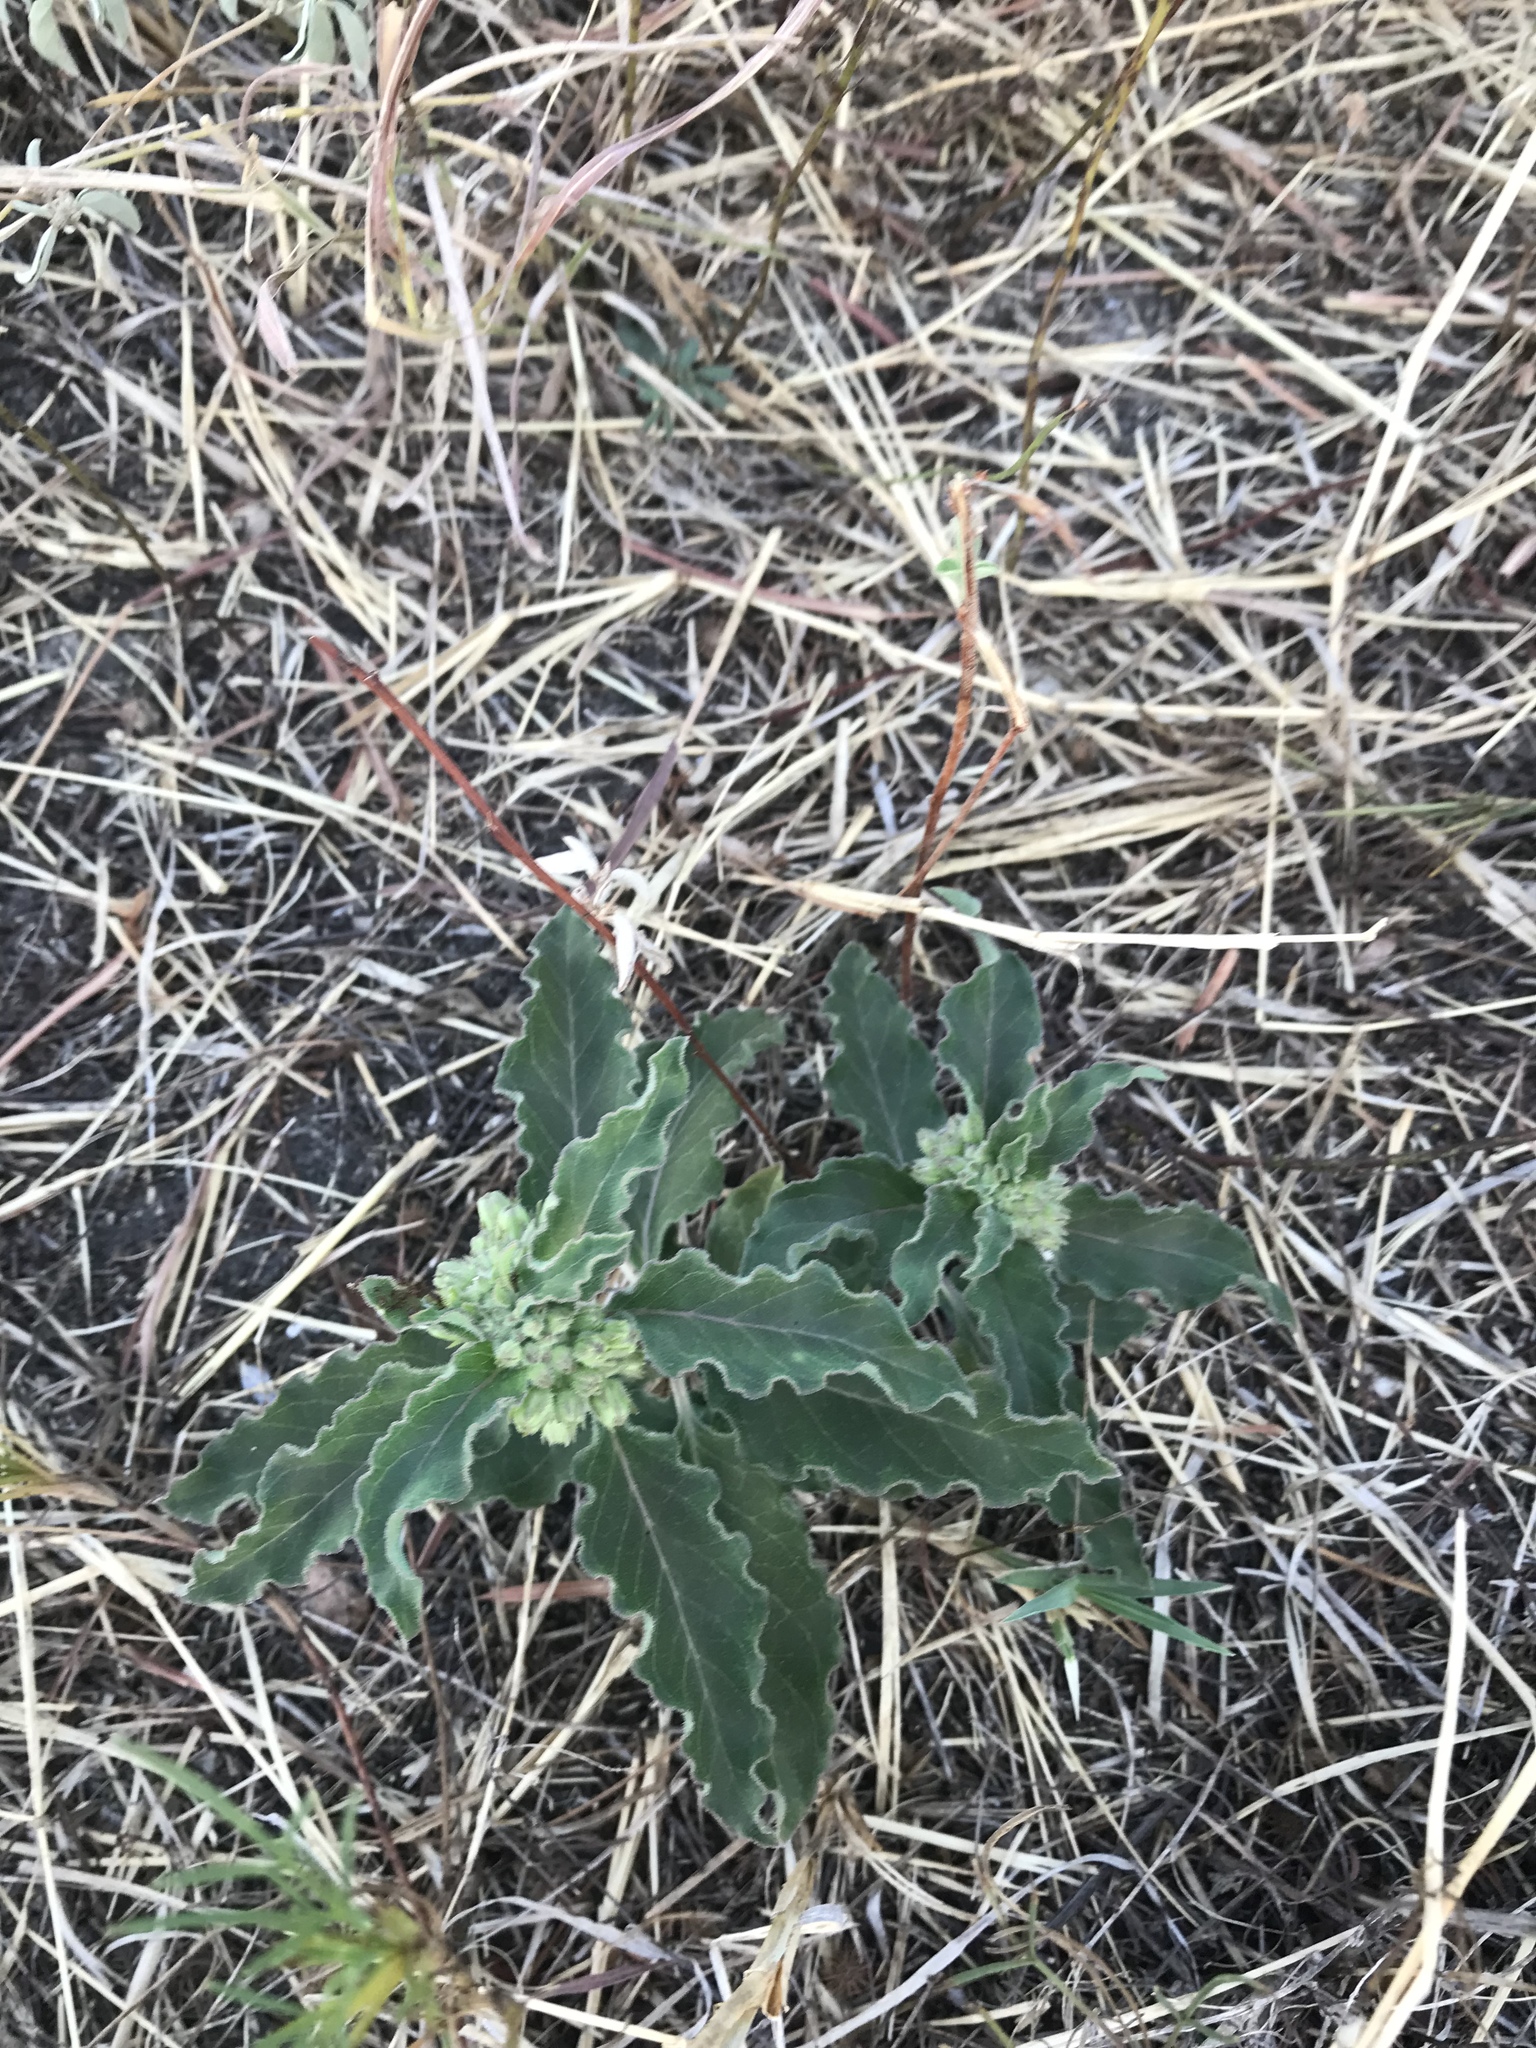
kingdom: Plantae
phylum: Tracheophyta
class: Magnoliopsida
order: Gentianales
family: Apocynaceae
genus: Asclepias
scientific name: Asclepias oenotheroides
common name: Zizotes milkweed
